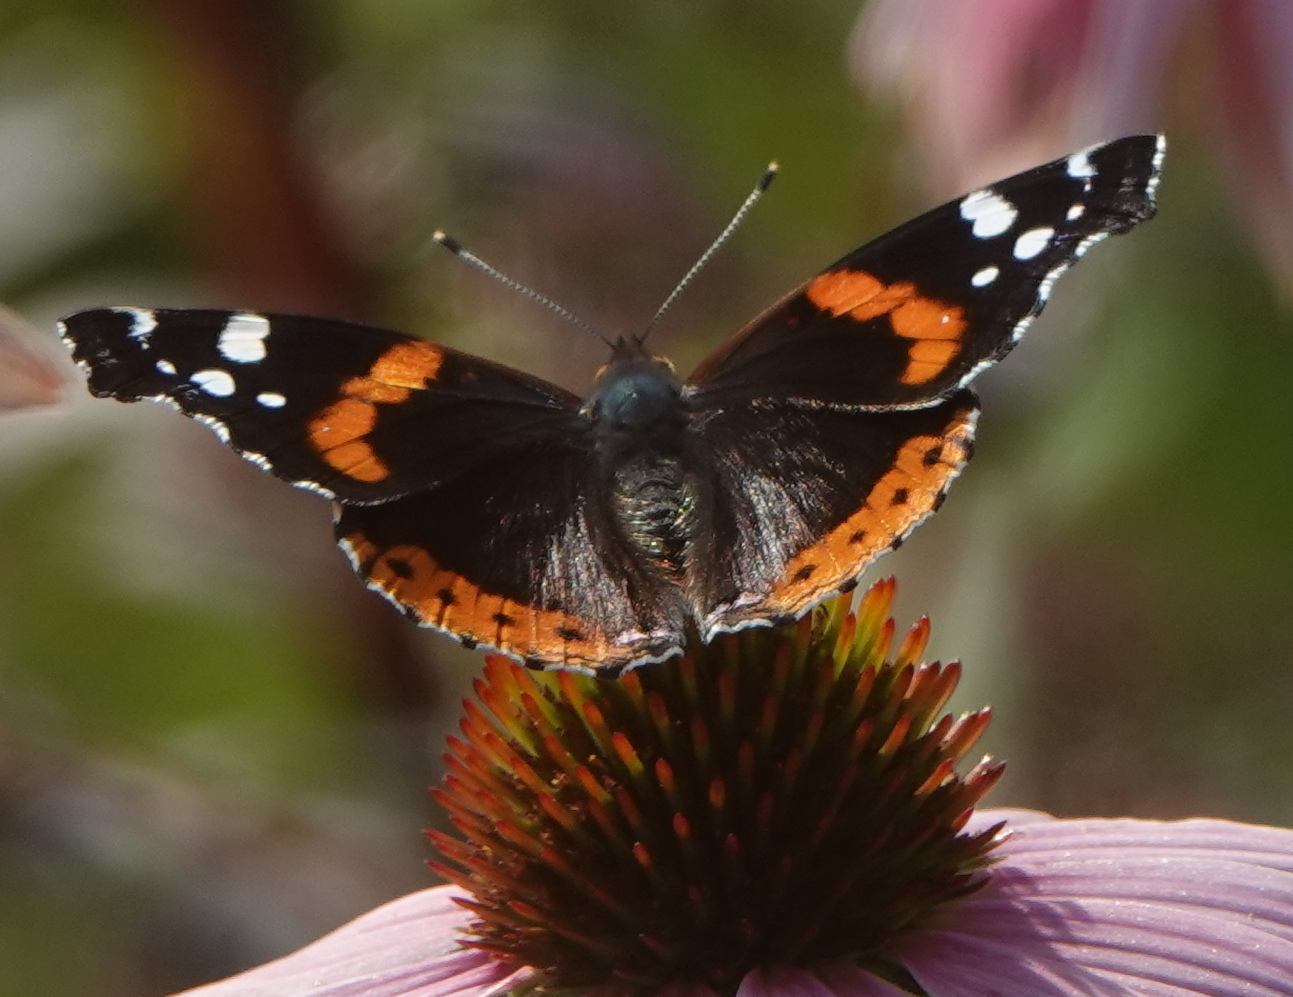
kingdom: Animalia
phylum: Arthropoda
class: Insecta
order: Lepidoptera
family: Nymphalidae
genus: Vanessa
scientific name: Vanessa atalanta
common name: Red admiral
